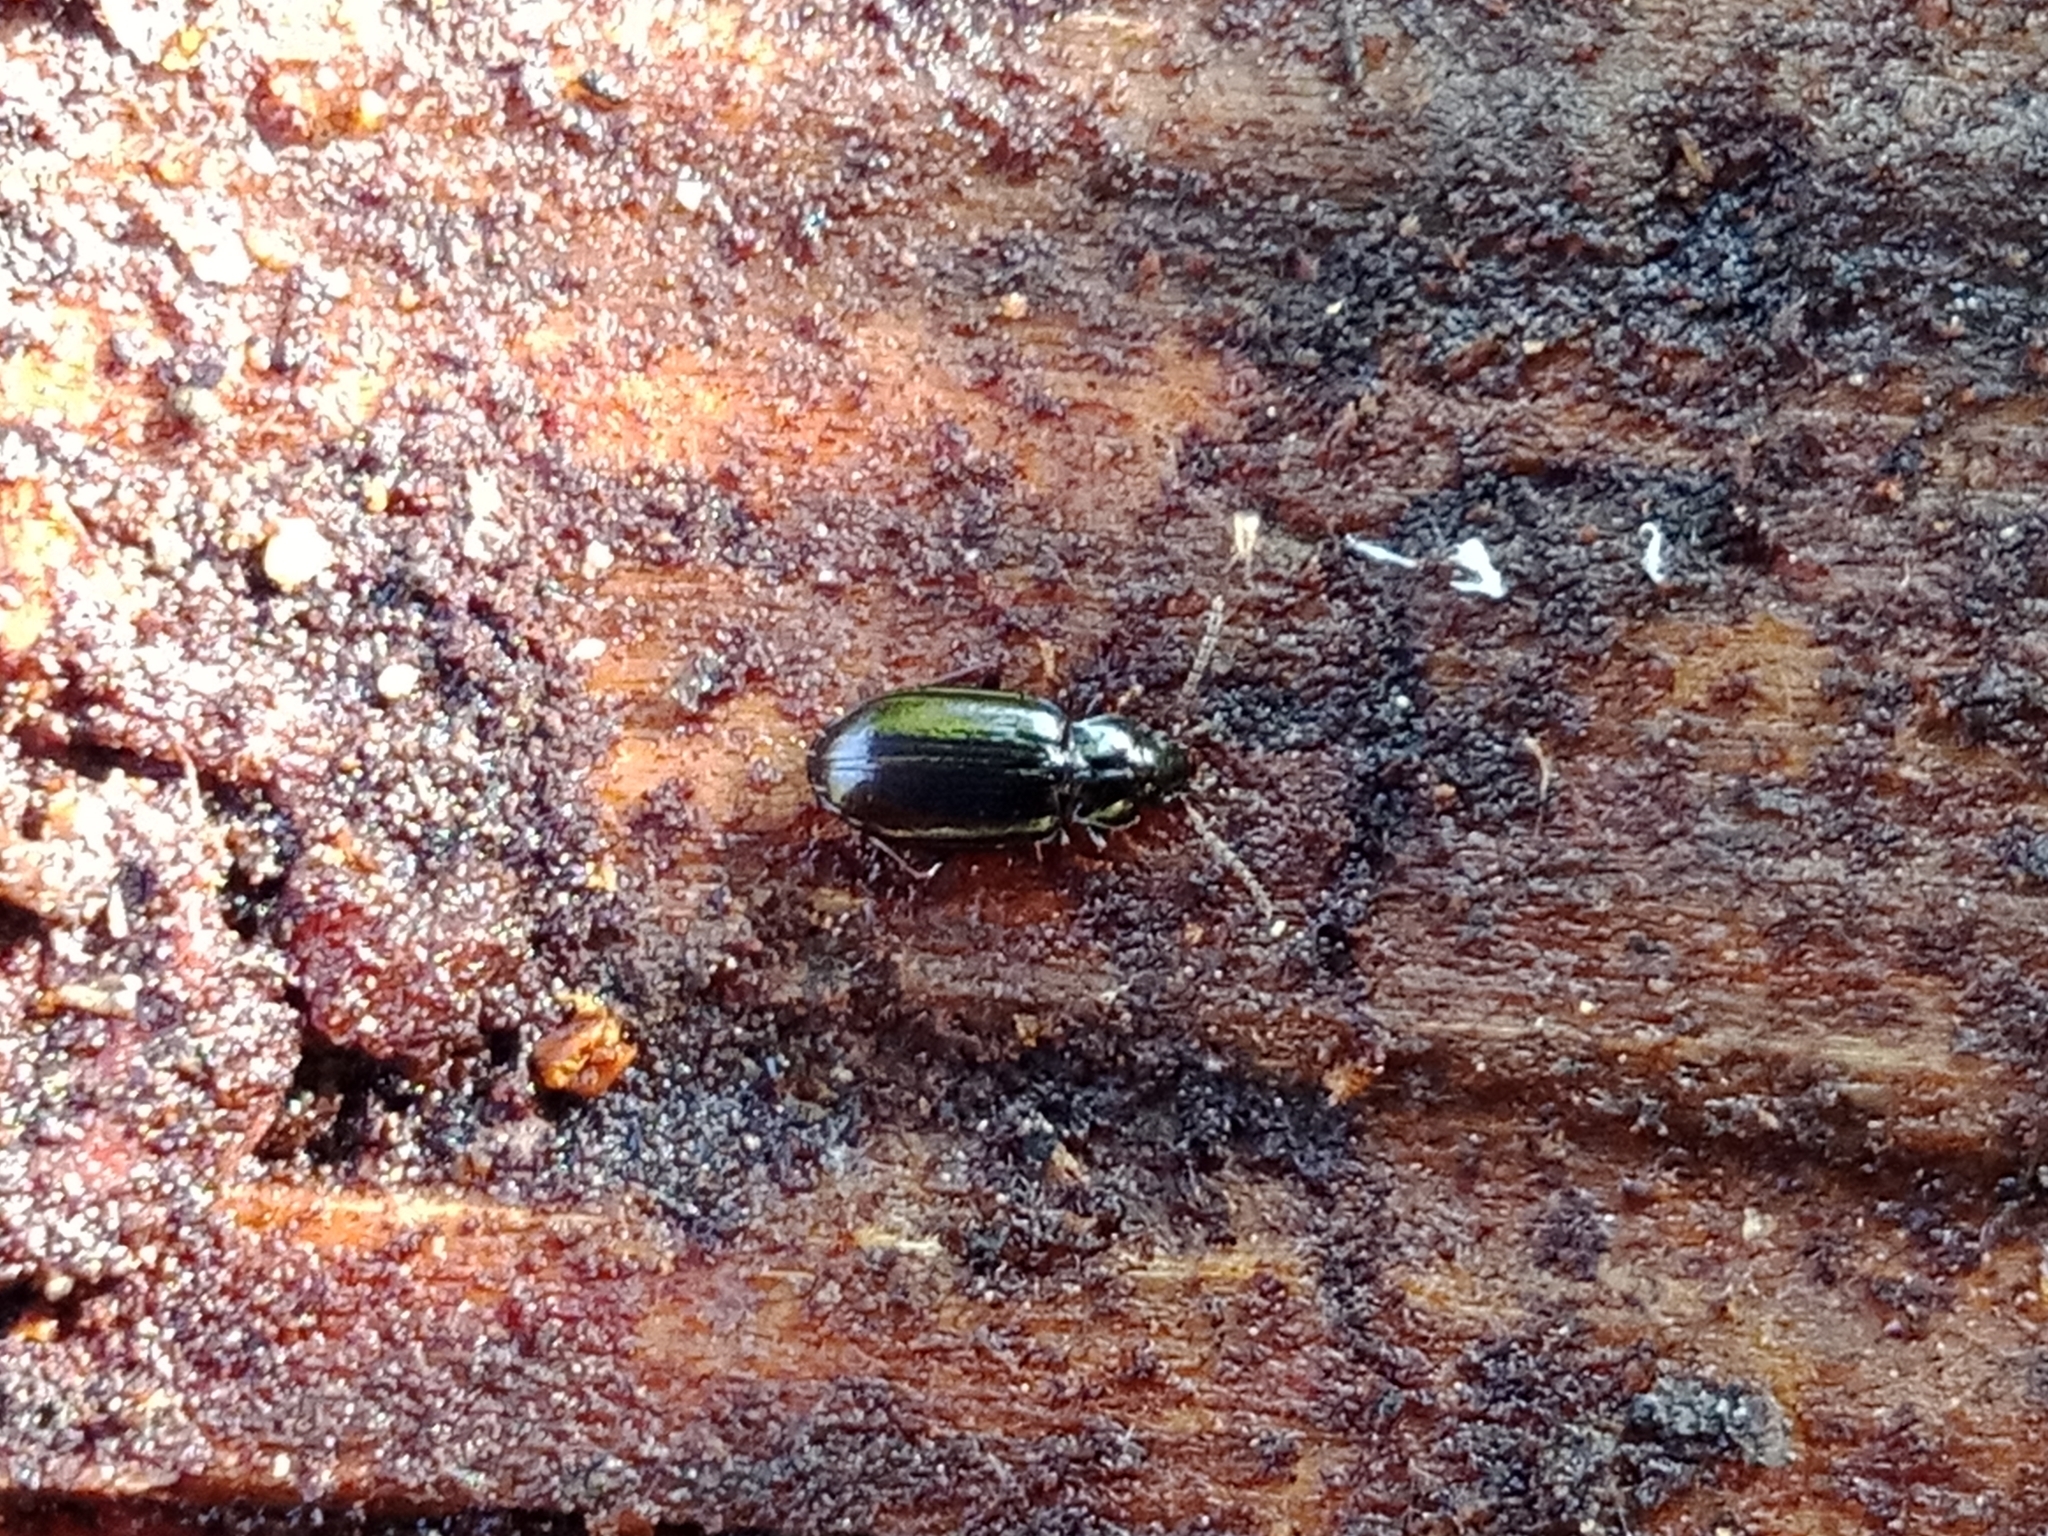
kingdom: Animalia
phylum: Arthropoda
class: Insecta
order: Coleoptera
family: Carabidae
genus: Tachyta
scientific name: Tachyta nana
